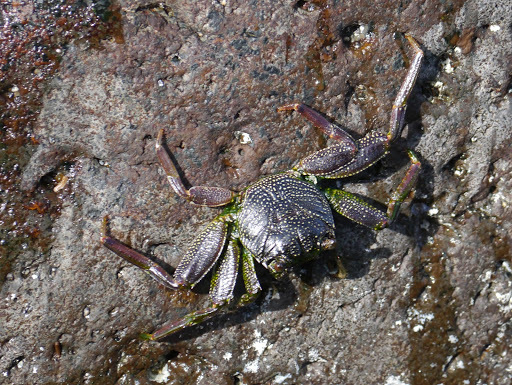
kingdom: Animalia
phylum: Arthropoda
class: Malacostraca
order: Decapoda
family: Grapsidae
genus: Grapsus
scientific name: Grapsus tenuicrustatus
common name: Natal lightfoot crab
